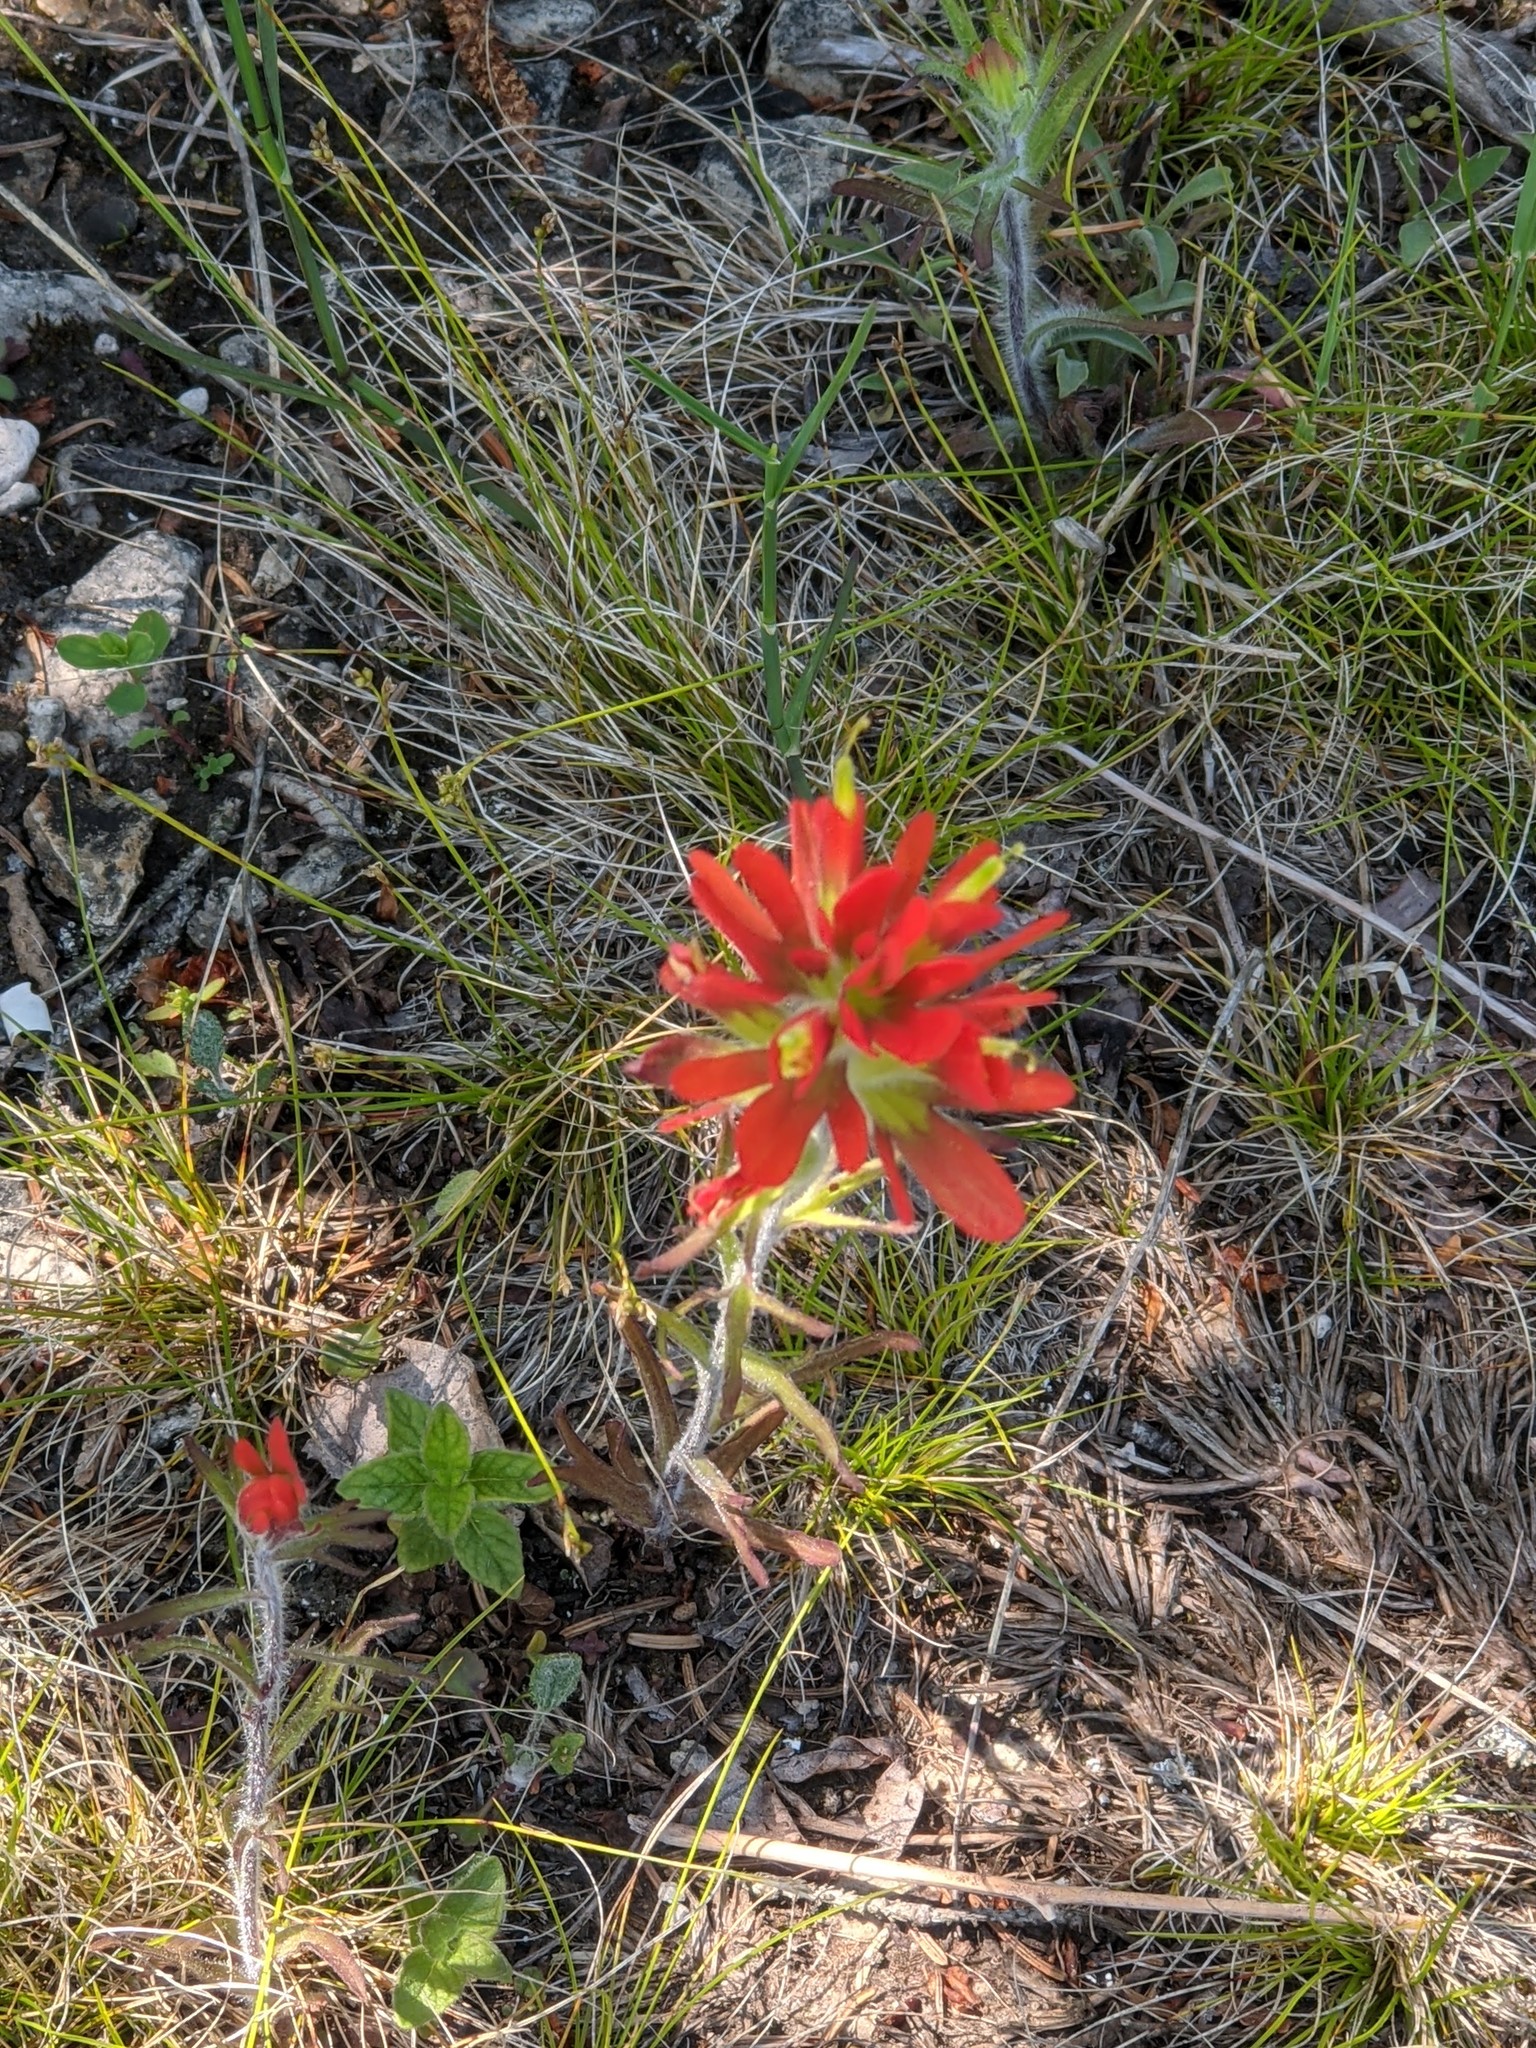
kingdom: Plantae
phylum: Tracheophyta
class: Magnoliopsida
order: Lamiales
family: Orobanchaceae
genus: Castilleja
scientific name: Castilleja coccinea
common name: Scarlet paintbrush
